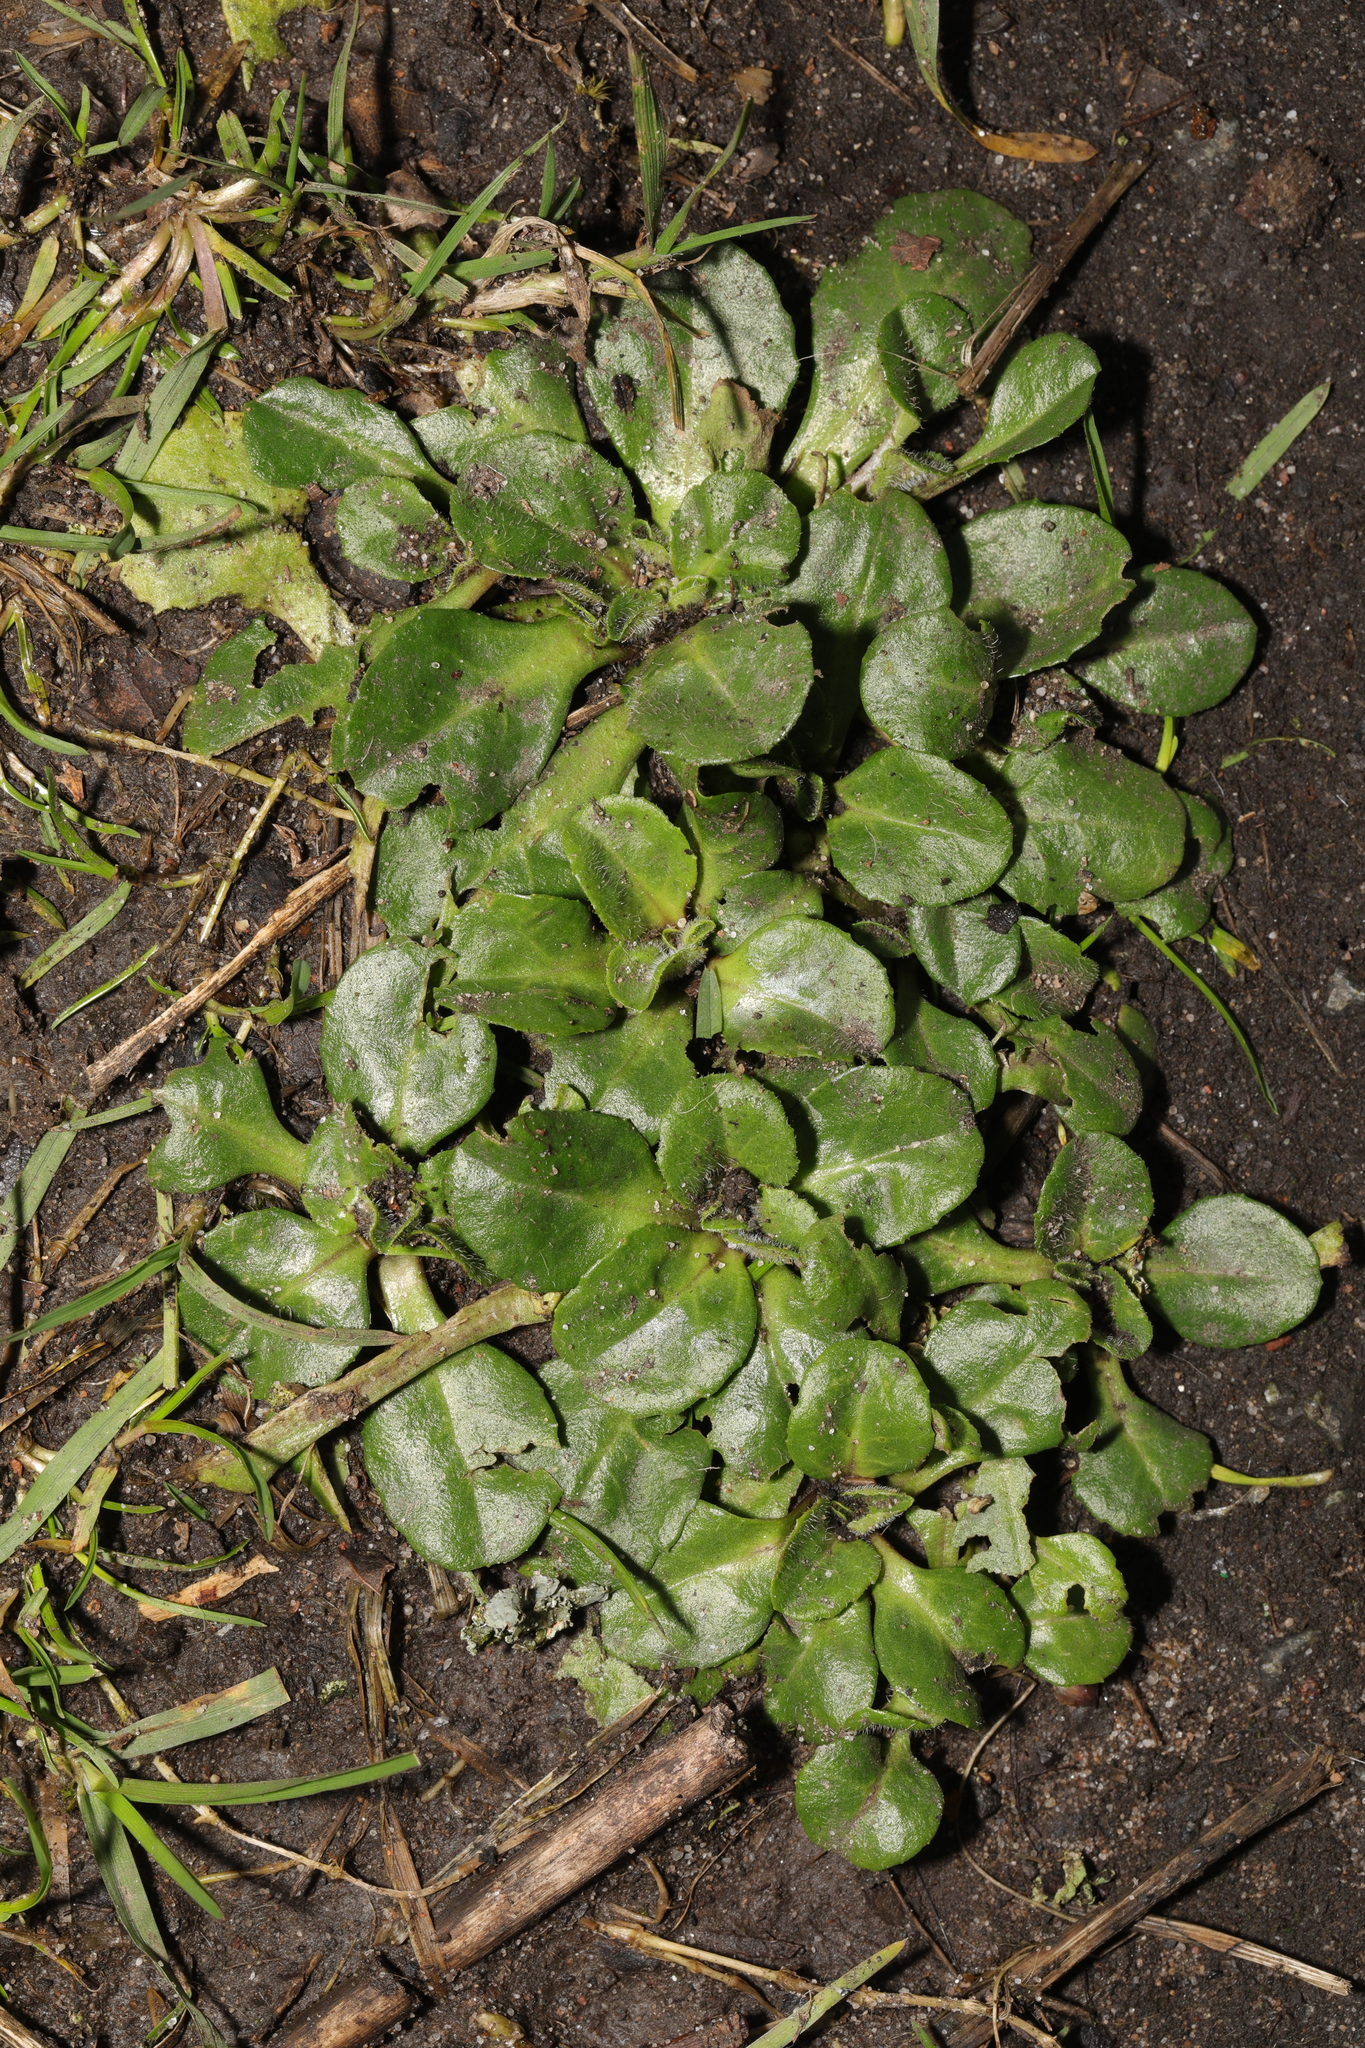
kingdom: Plantae
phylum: Tracheophyta
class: Magnoliopsida
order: Asterales
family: Asteraceae
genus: Bellis
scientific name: Bellis perennis
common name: Lawndaisy
